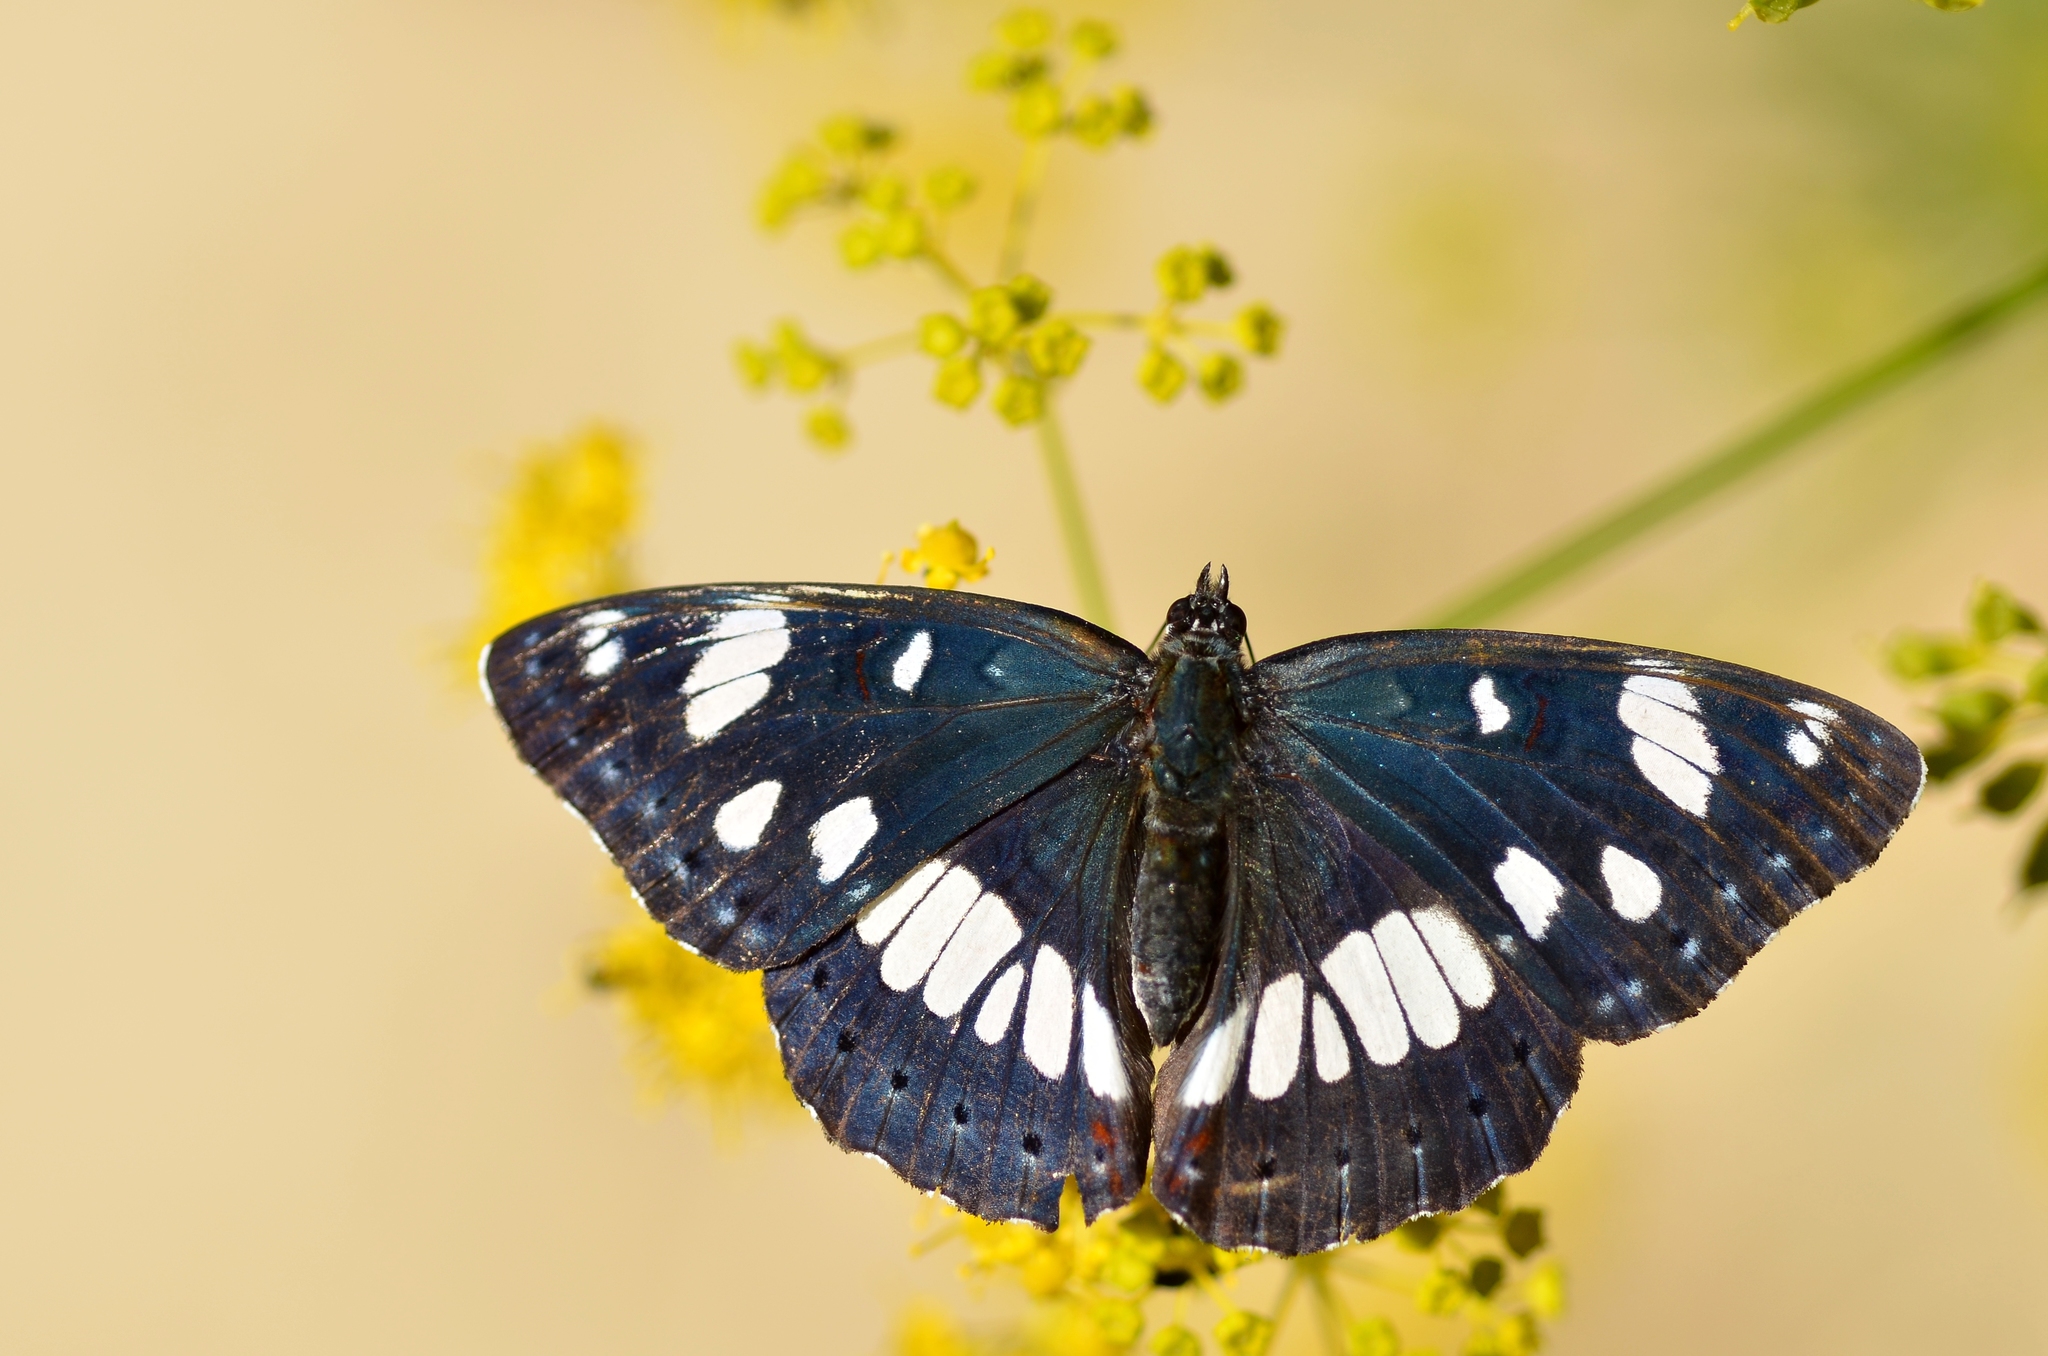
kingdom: Animalia
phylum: Arthropoda
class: Insecta
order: Lepidoptera
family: Nymphalidae
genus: Limenitis
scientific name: Limenitis reducta
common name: Southern white admiral
